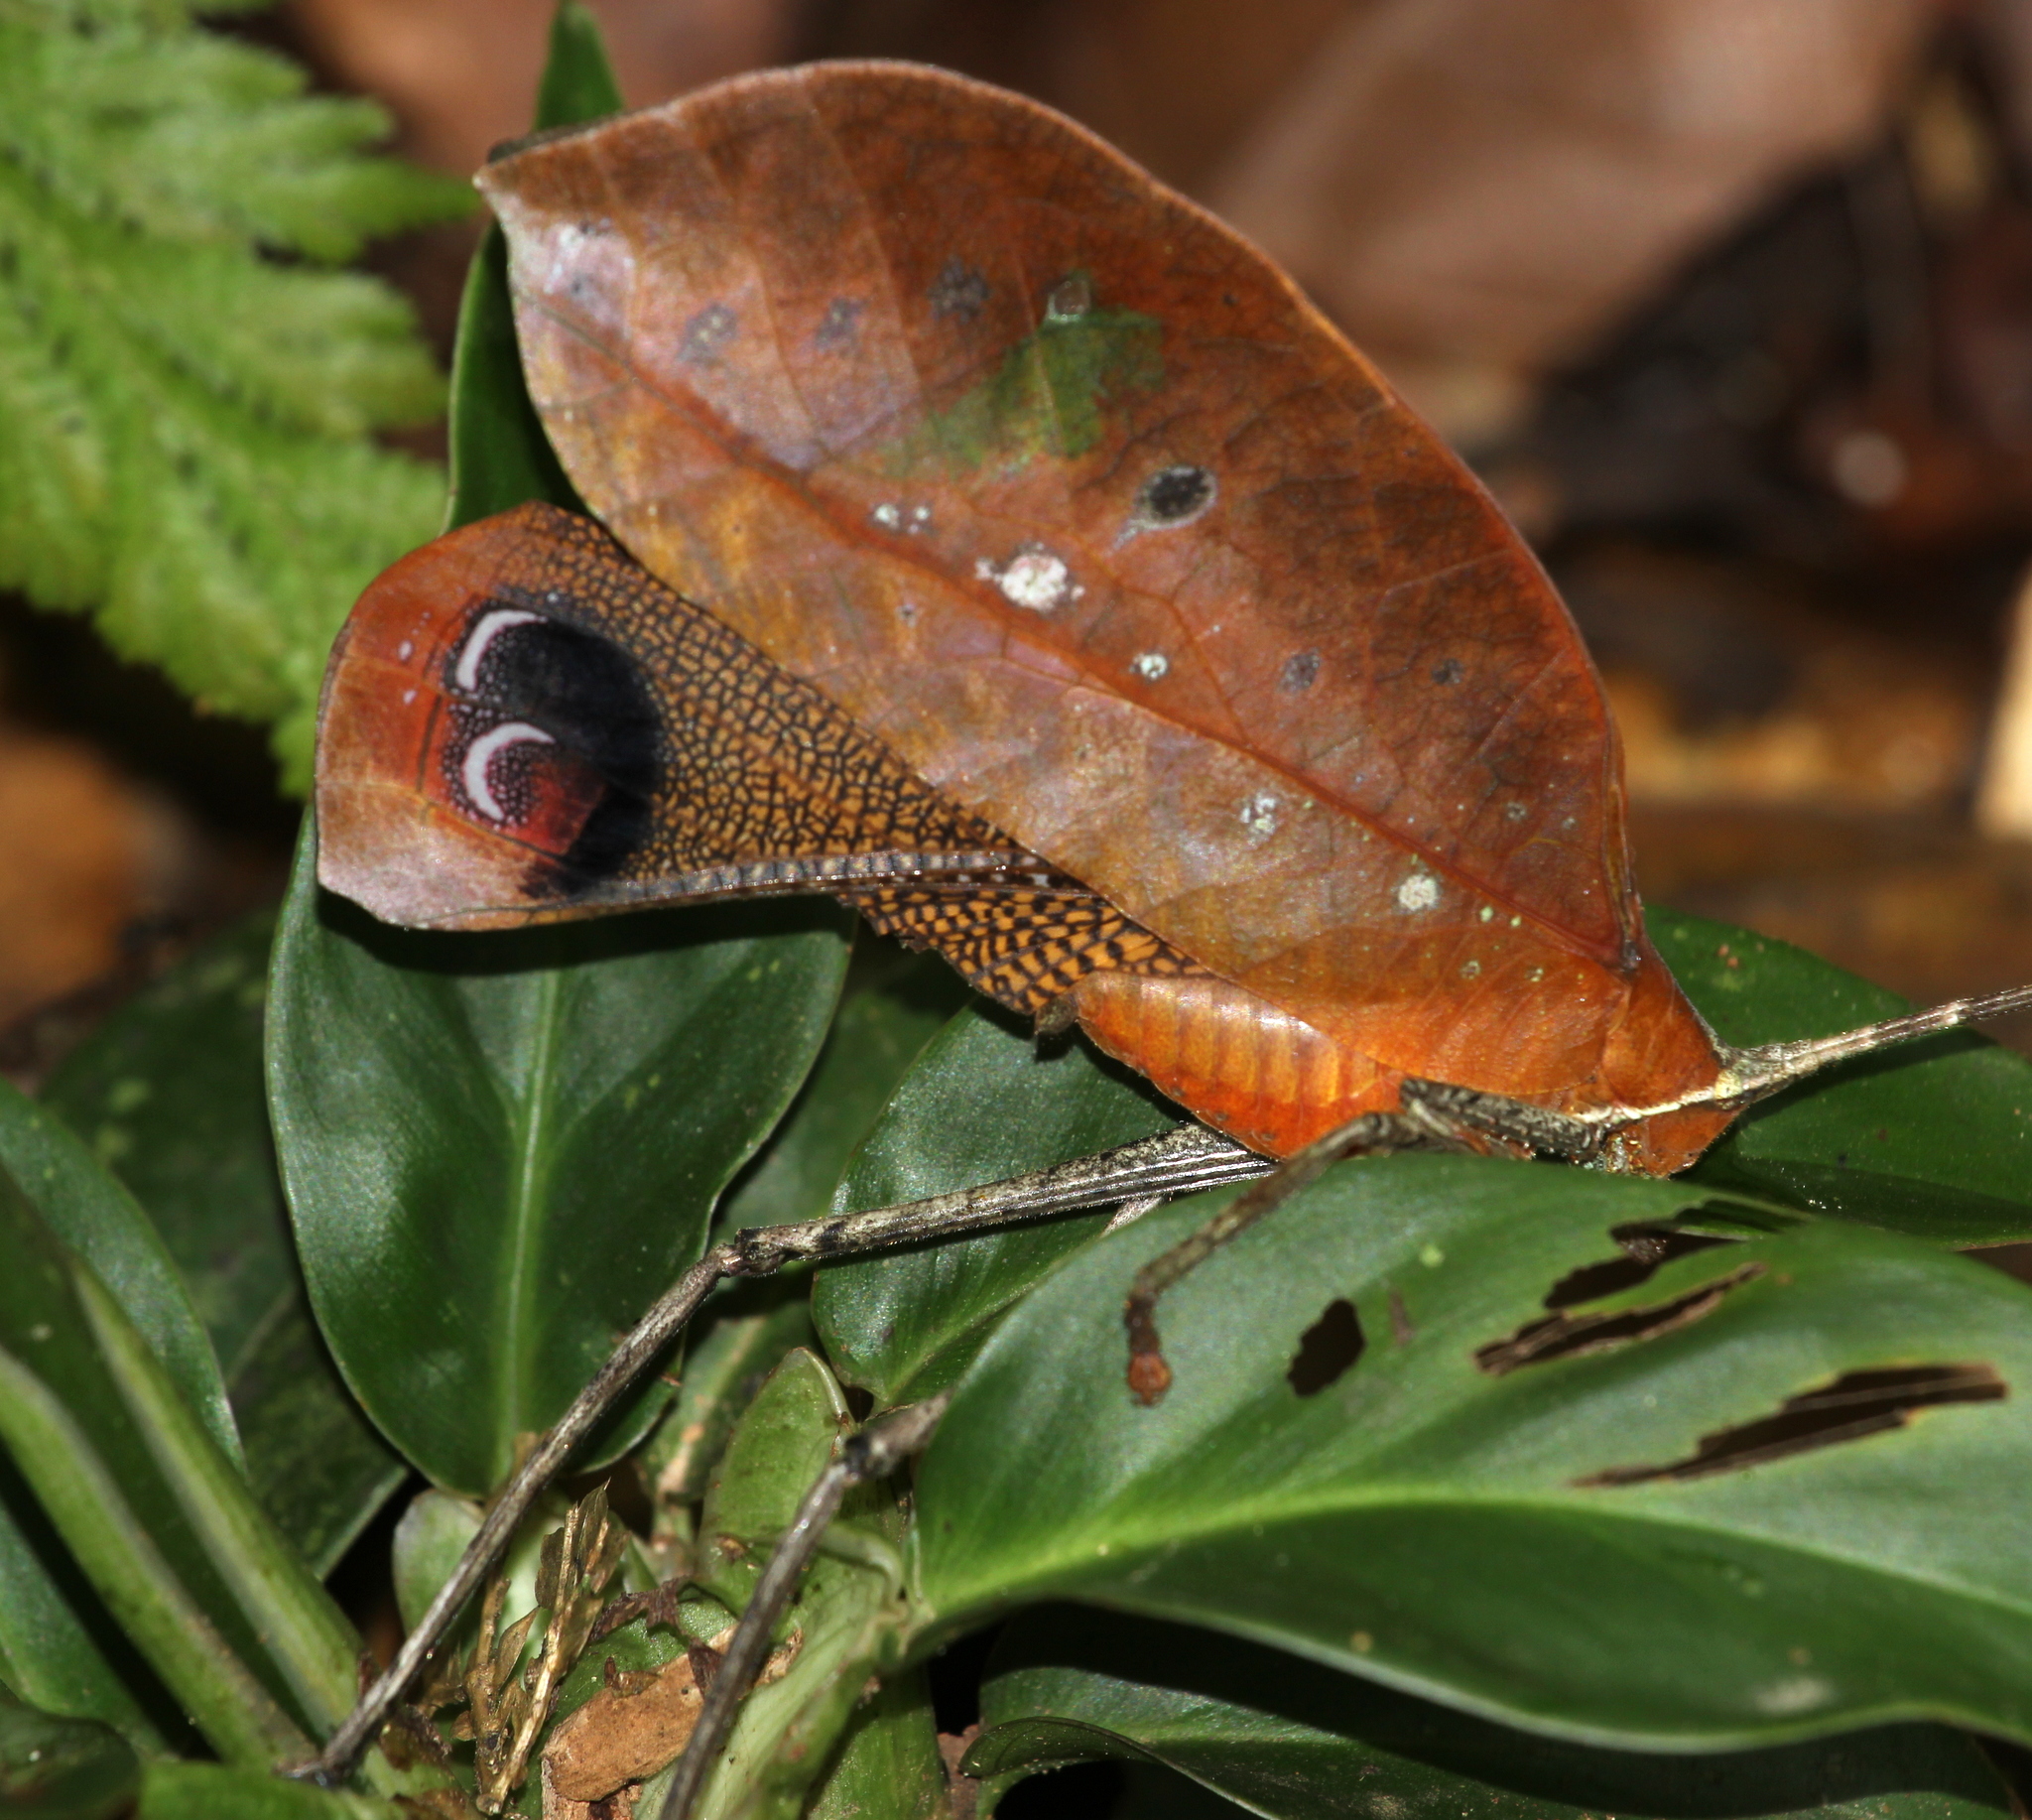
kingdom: Animalia
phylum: Arthropoda
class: Insecta
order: Orthoptera
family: Tettigoniidae
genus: Pterochroza
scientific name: Pterochroza ocellata
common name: Peacock katydid
